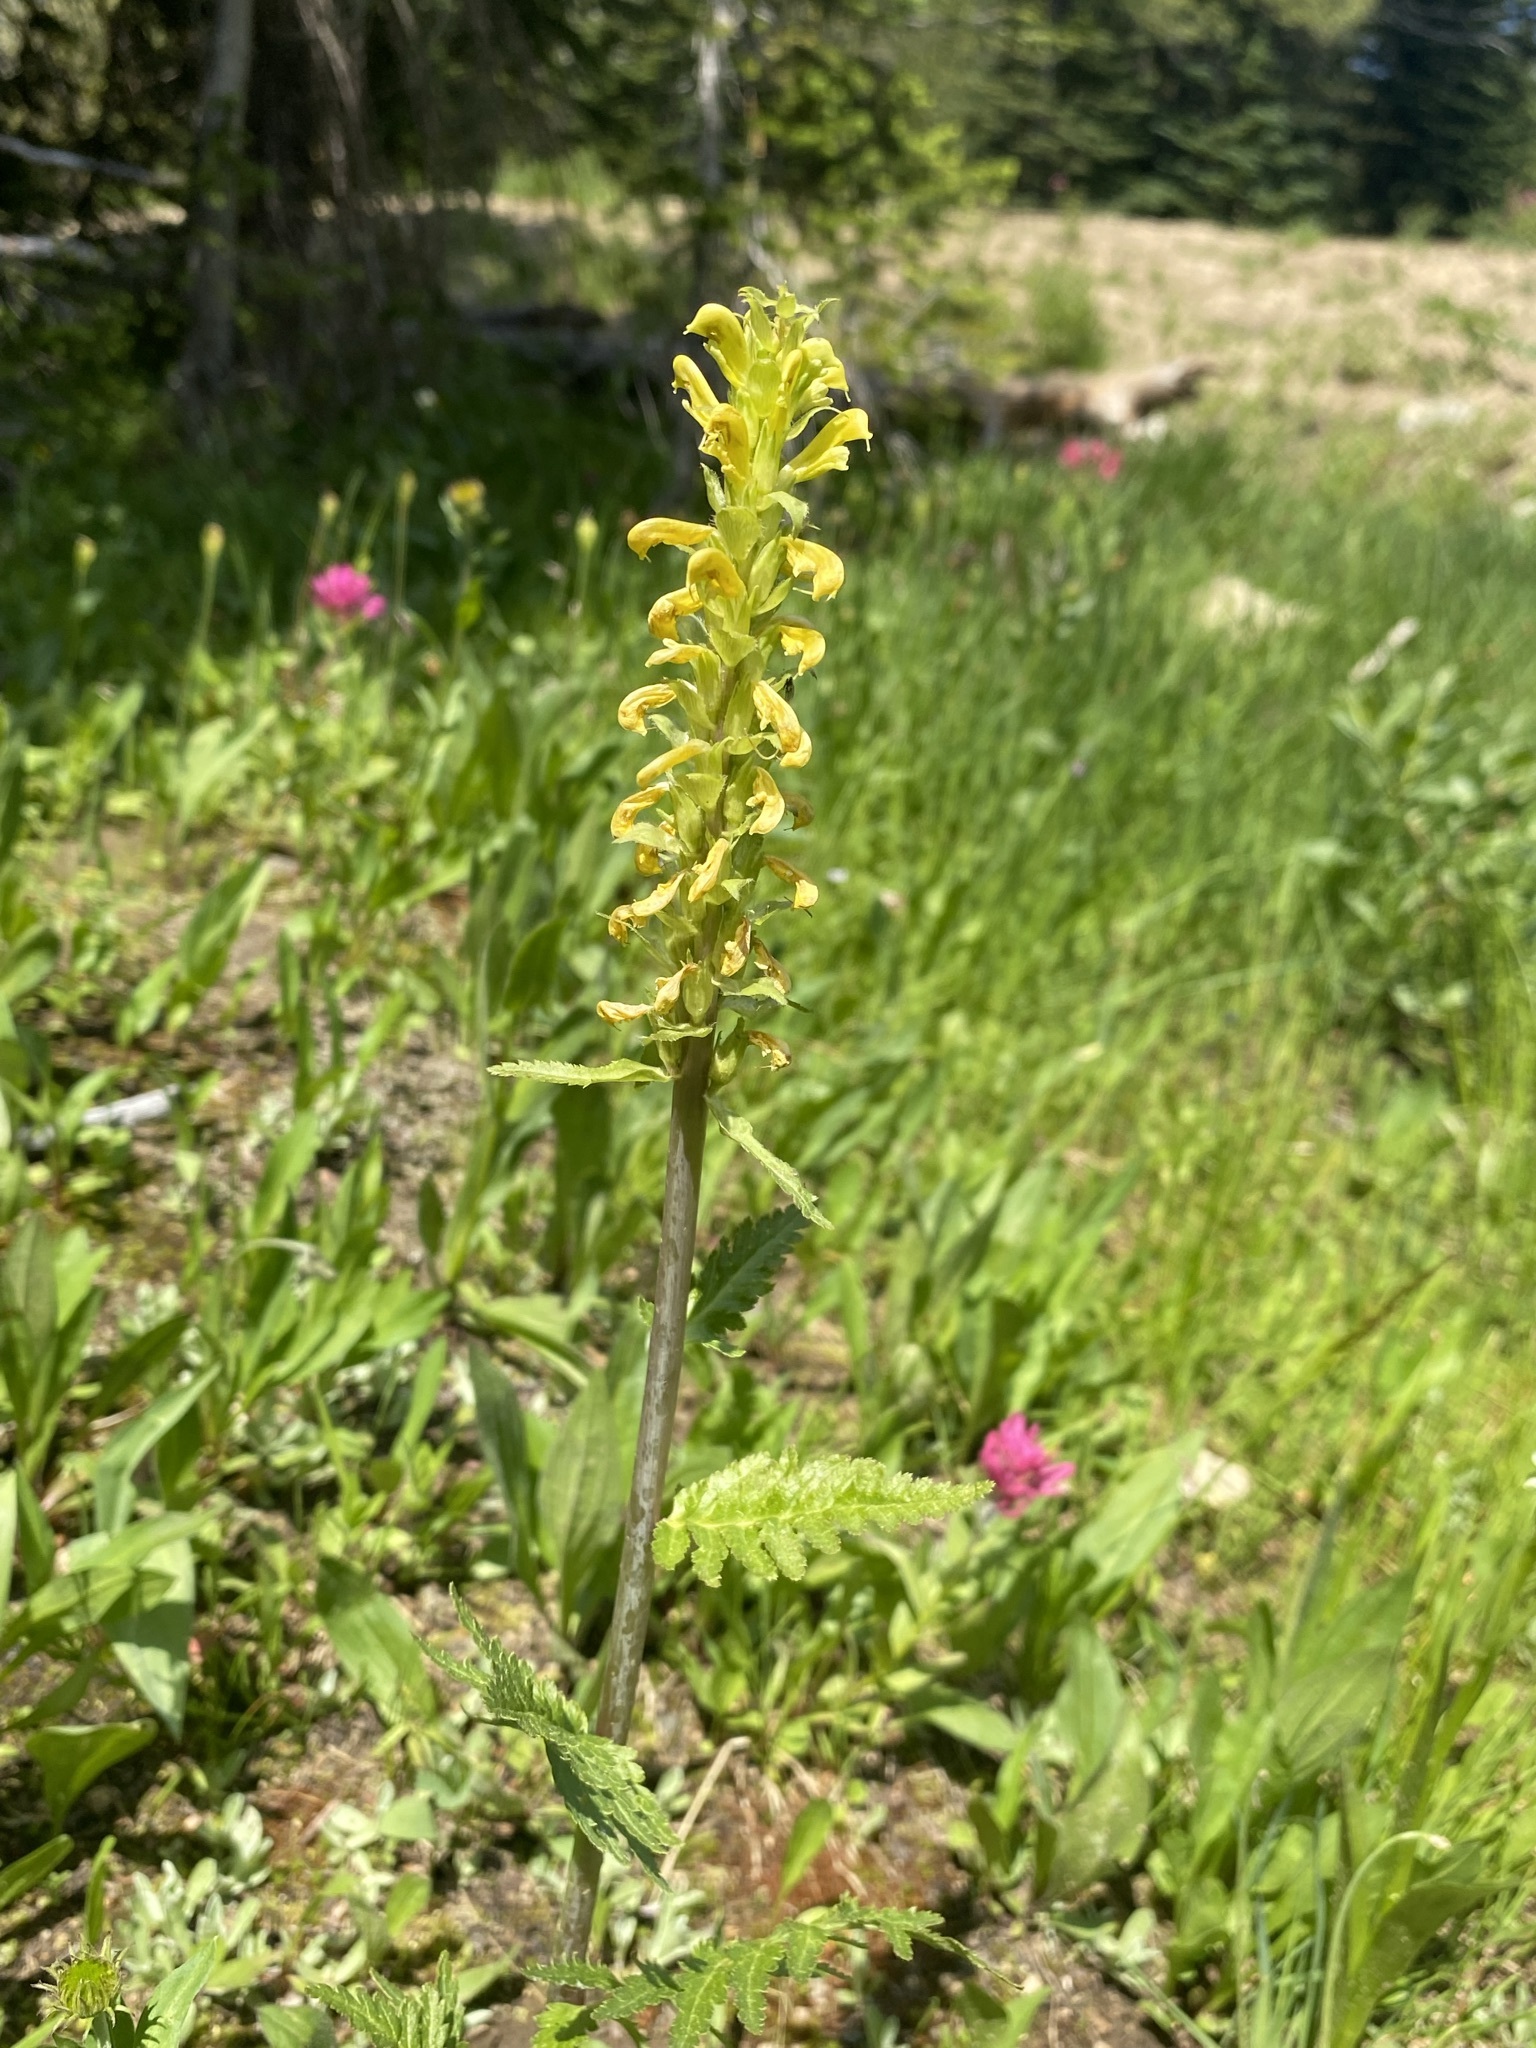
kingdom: Plantae
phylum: Tracheophyta
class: Magnoliopsida
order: Lamiales
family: Orobanchaceae
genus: Pedicularis
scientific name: Pedicularis bracteosa
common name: Bracted lousewort
